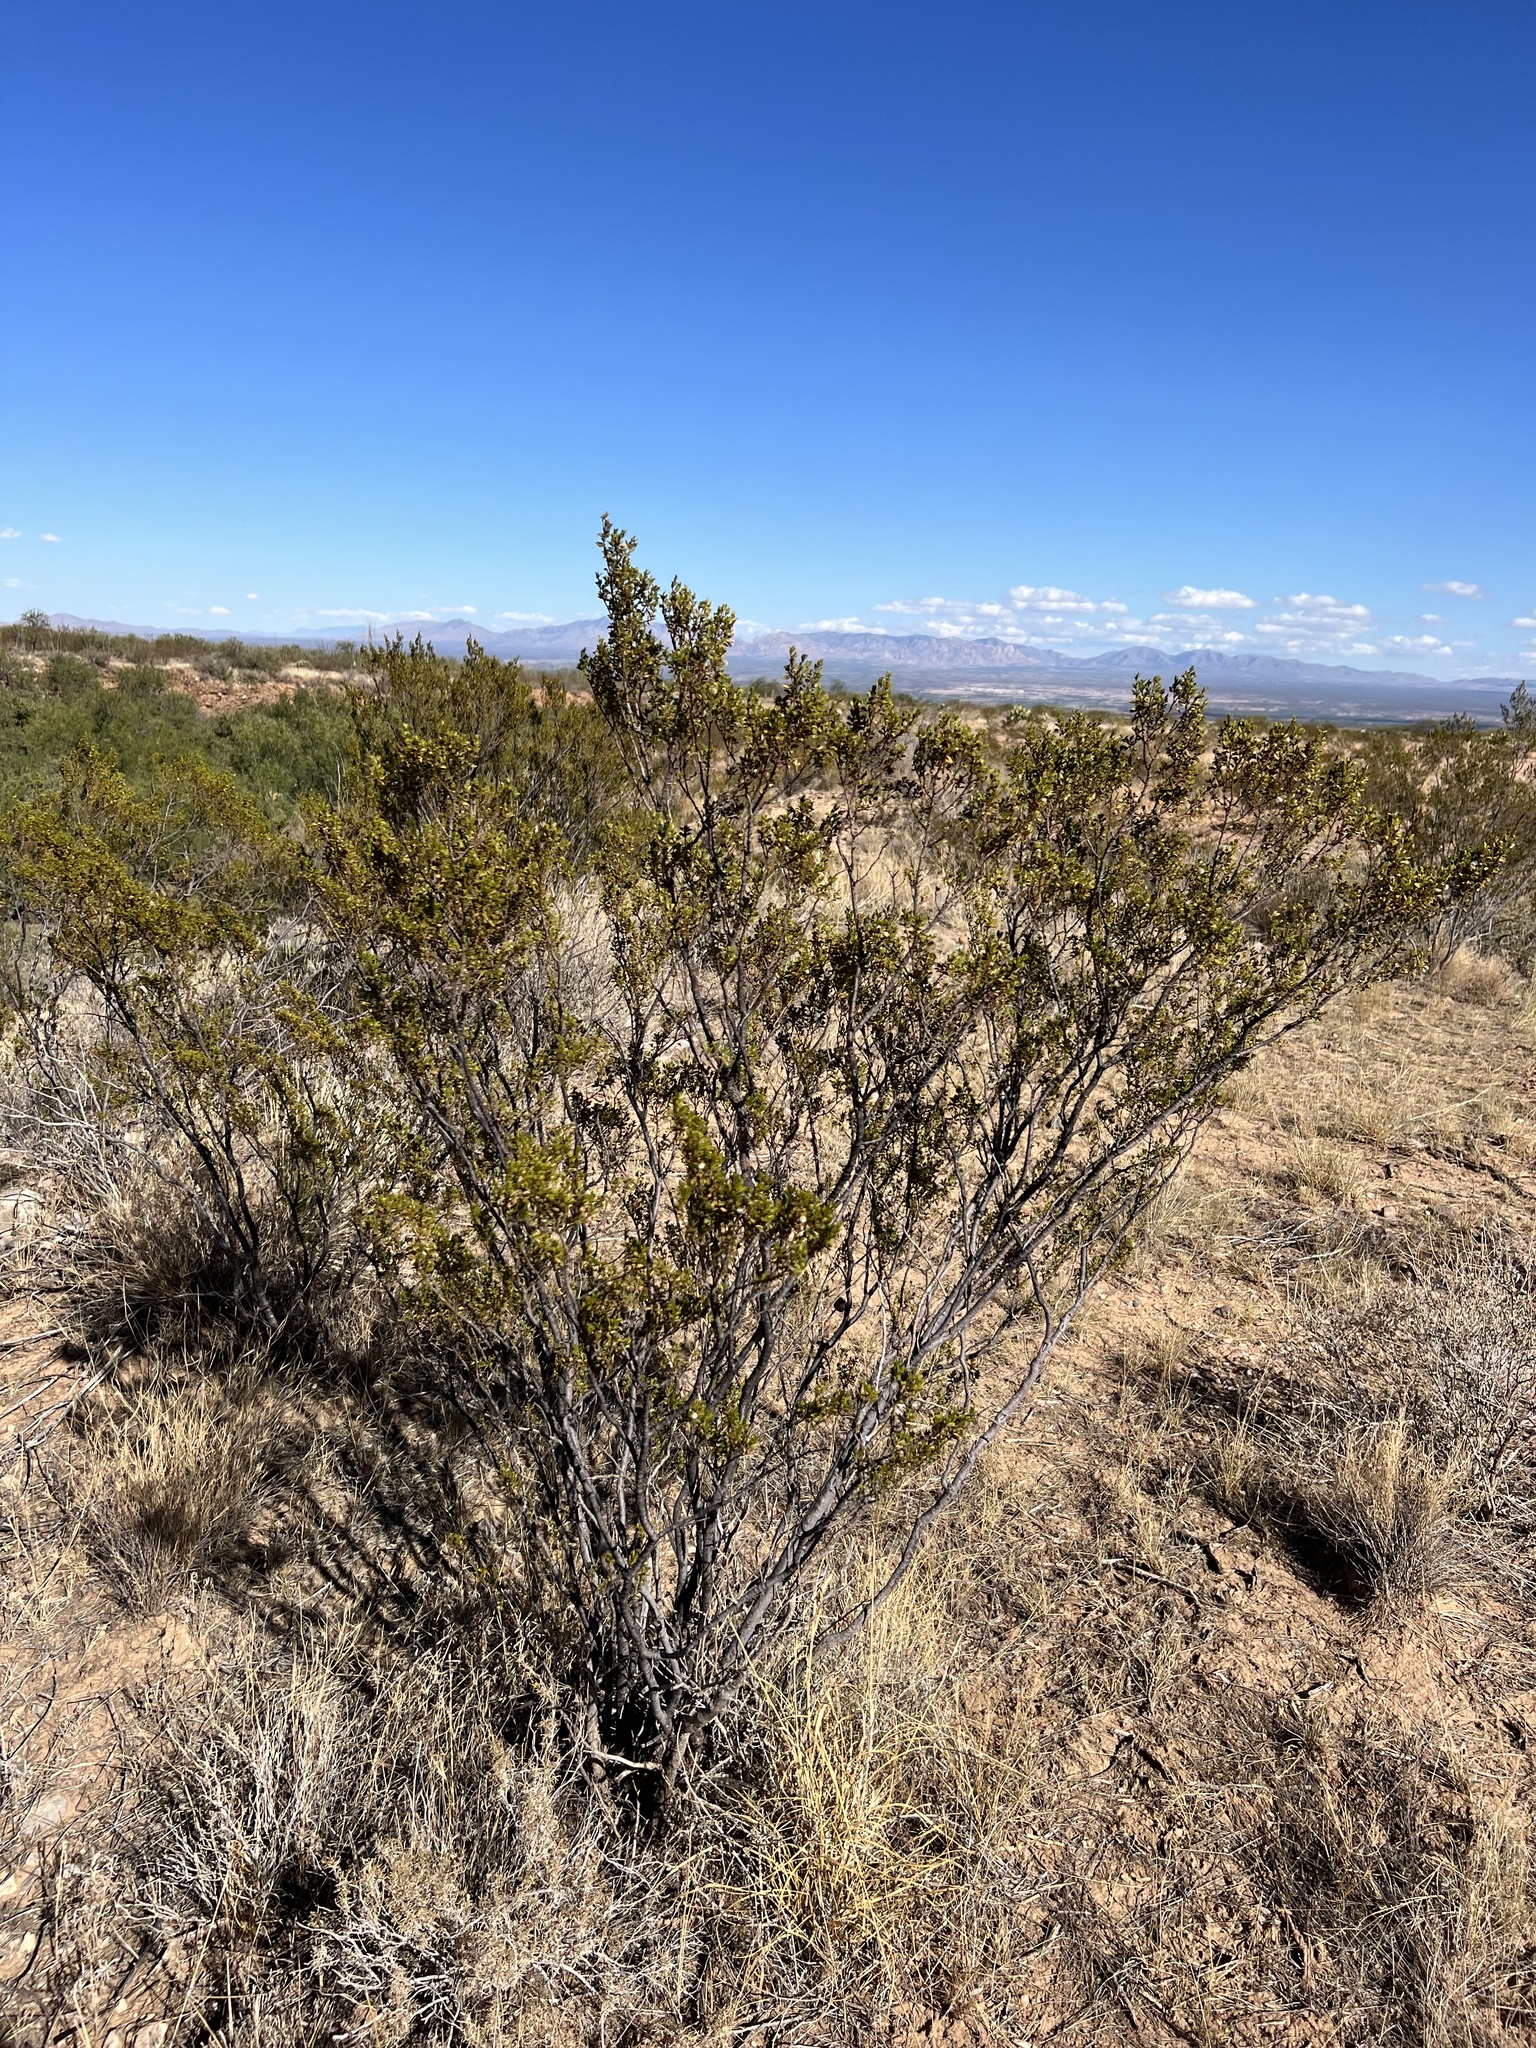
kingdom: Plantae
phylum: Tracheophyta
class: Magnoliopsida
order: Zygophyllales
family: Zygophyllaceae
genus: Larrea
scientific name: Larrea tridentata
